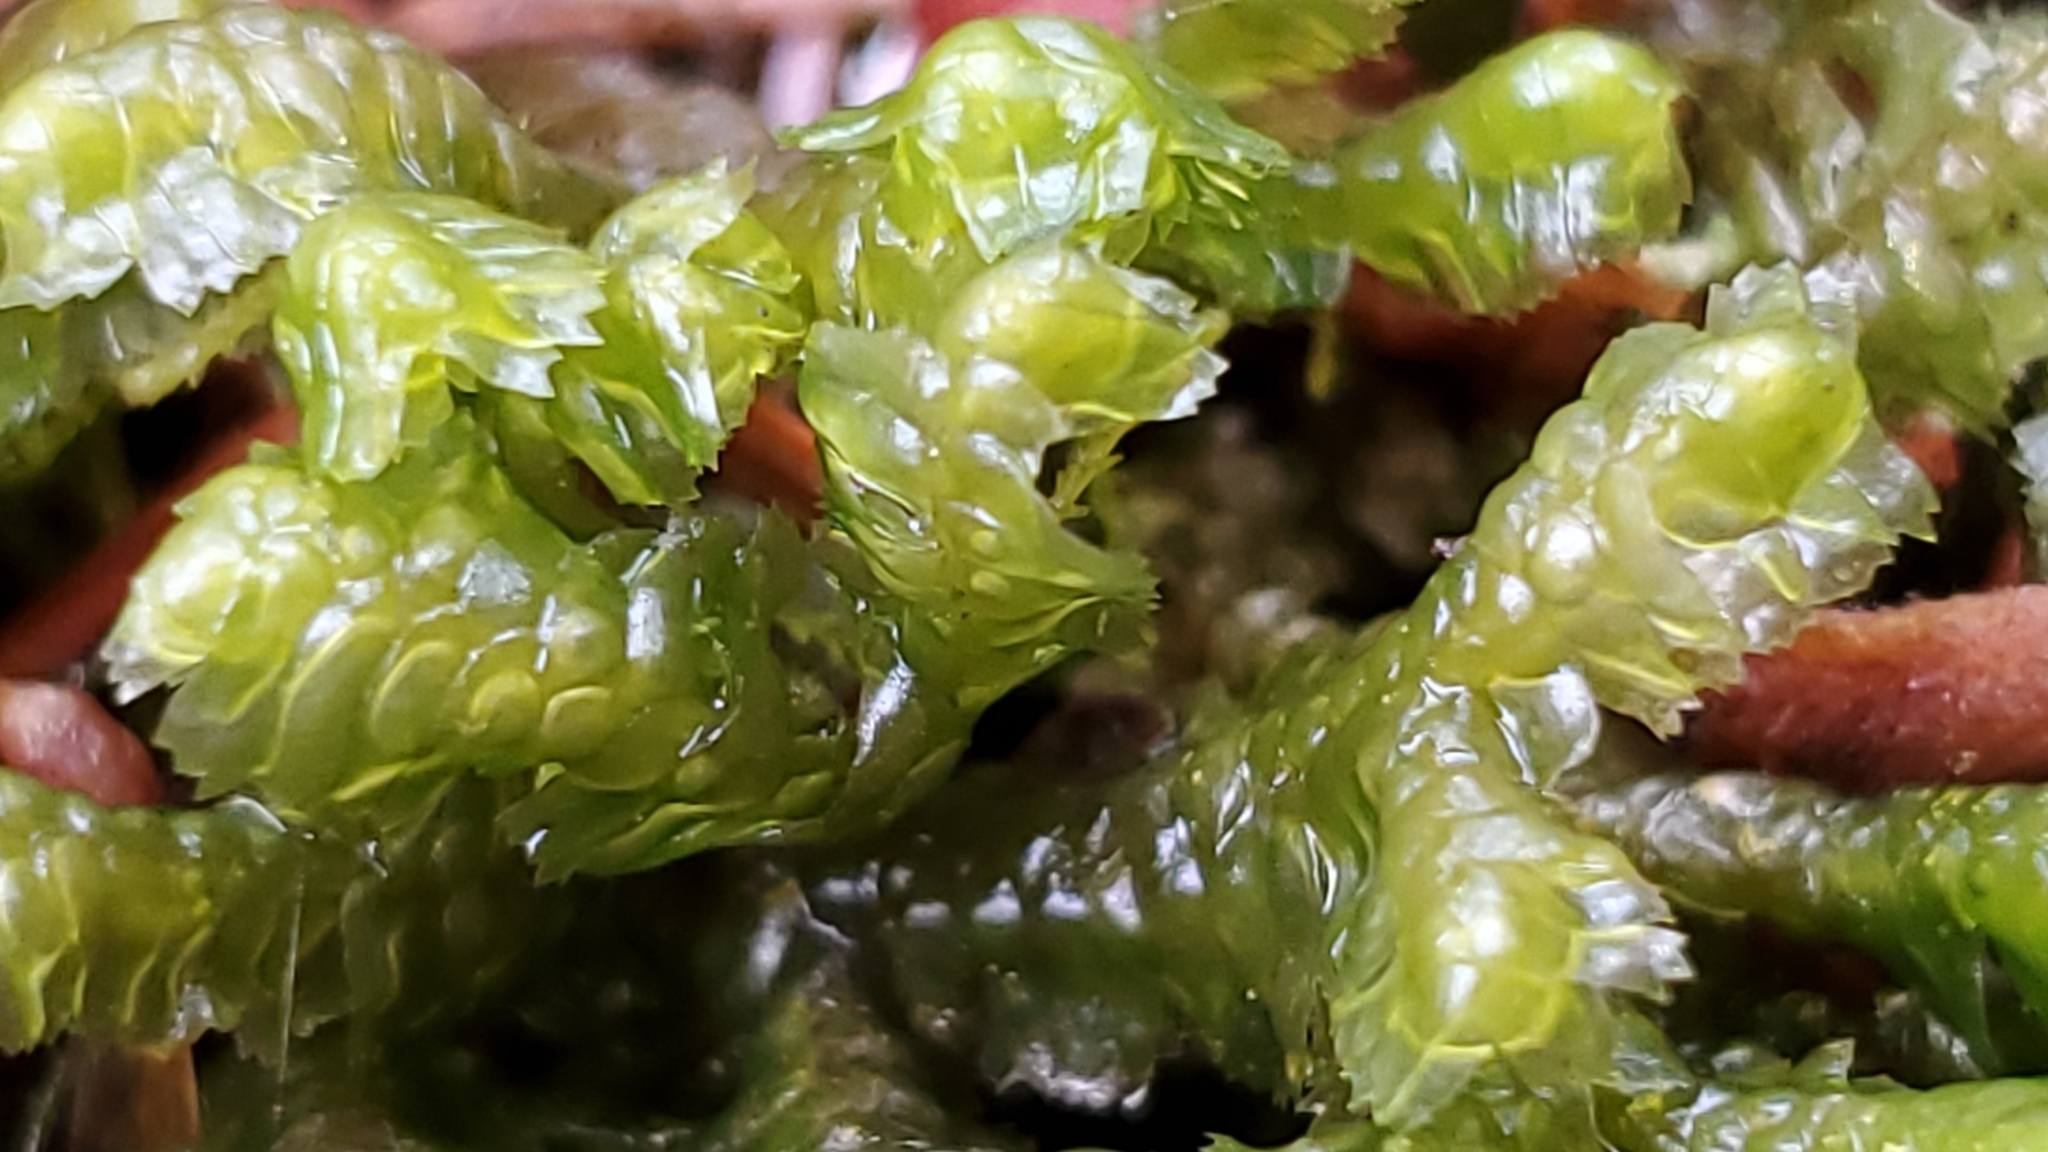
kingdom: Plantae
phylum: Marchantiophyta
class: Jungermanniopsida
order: Jungermanniales
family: Lepidoziaceae
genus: Bazzania
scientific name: Bazzania trilobata
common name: Three-lobed whipwort
